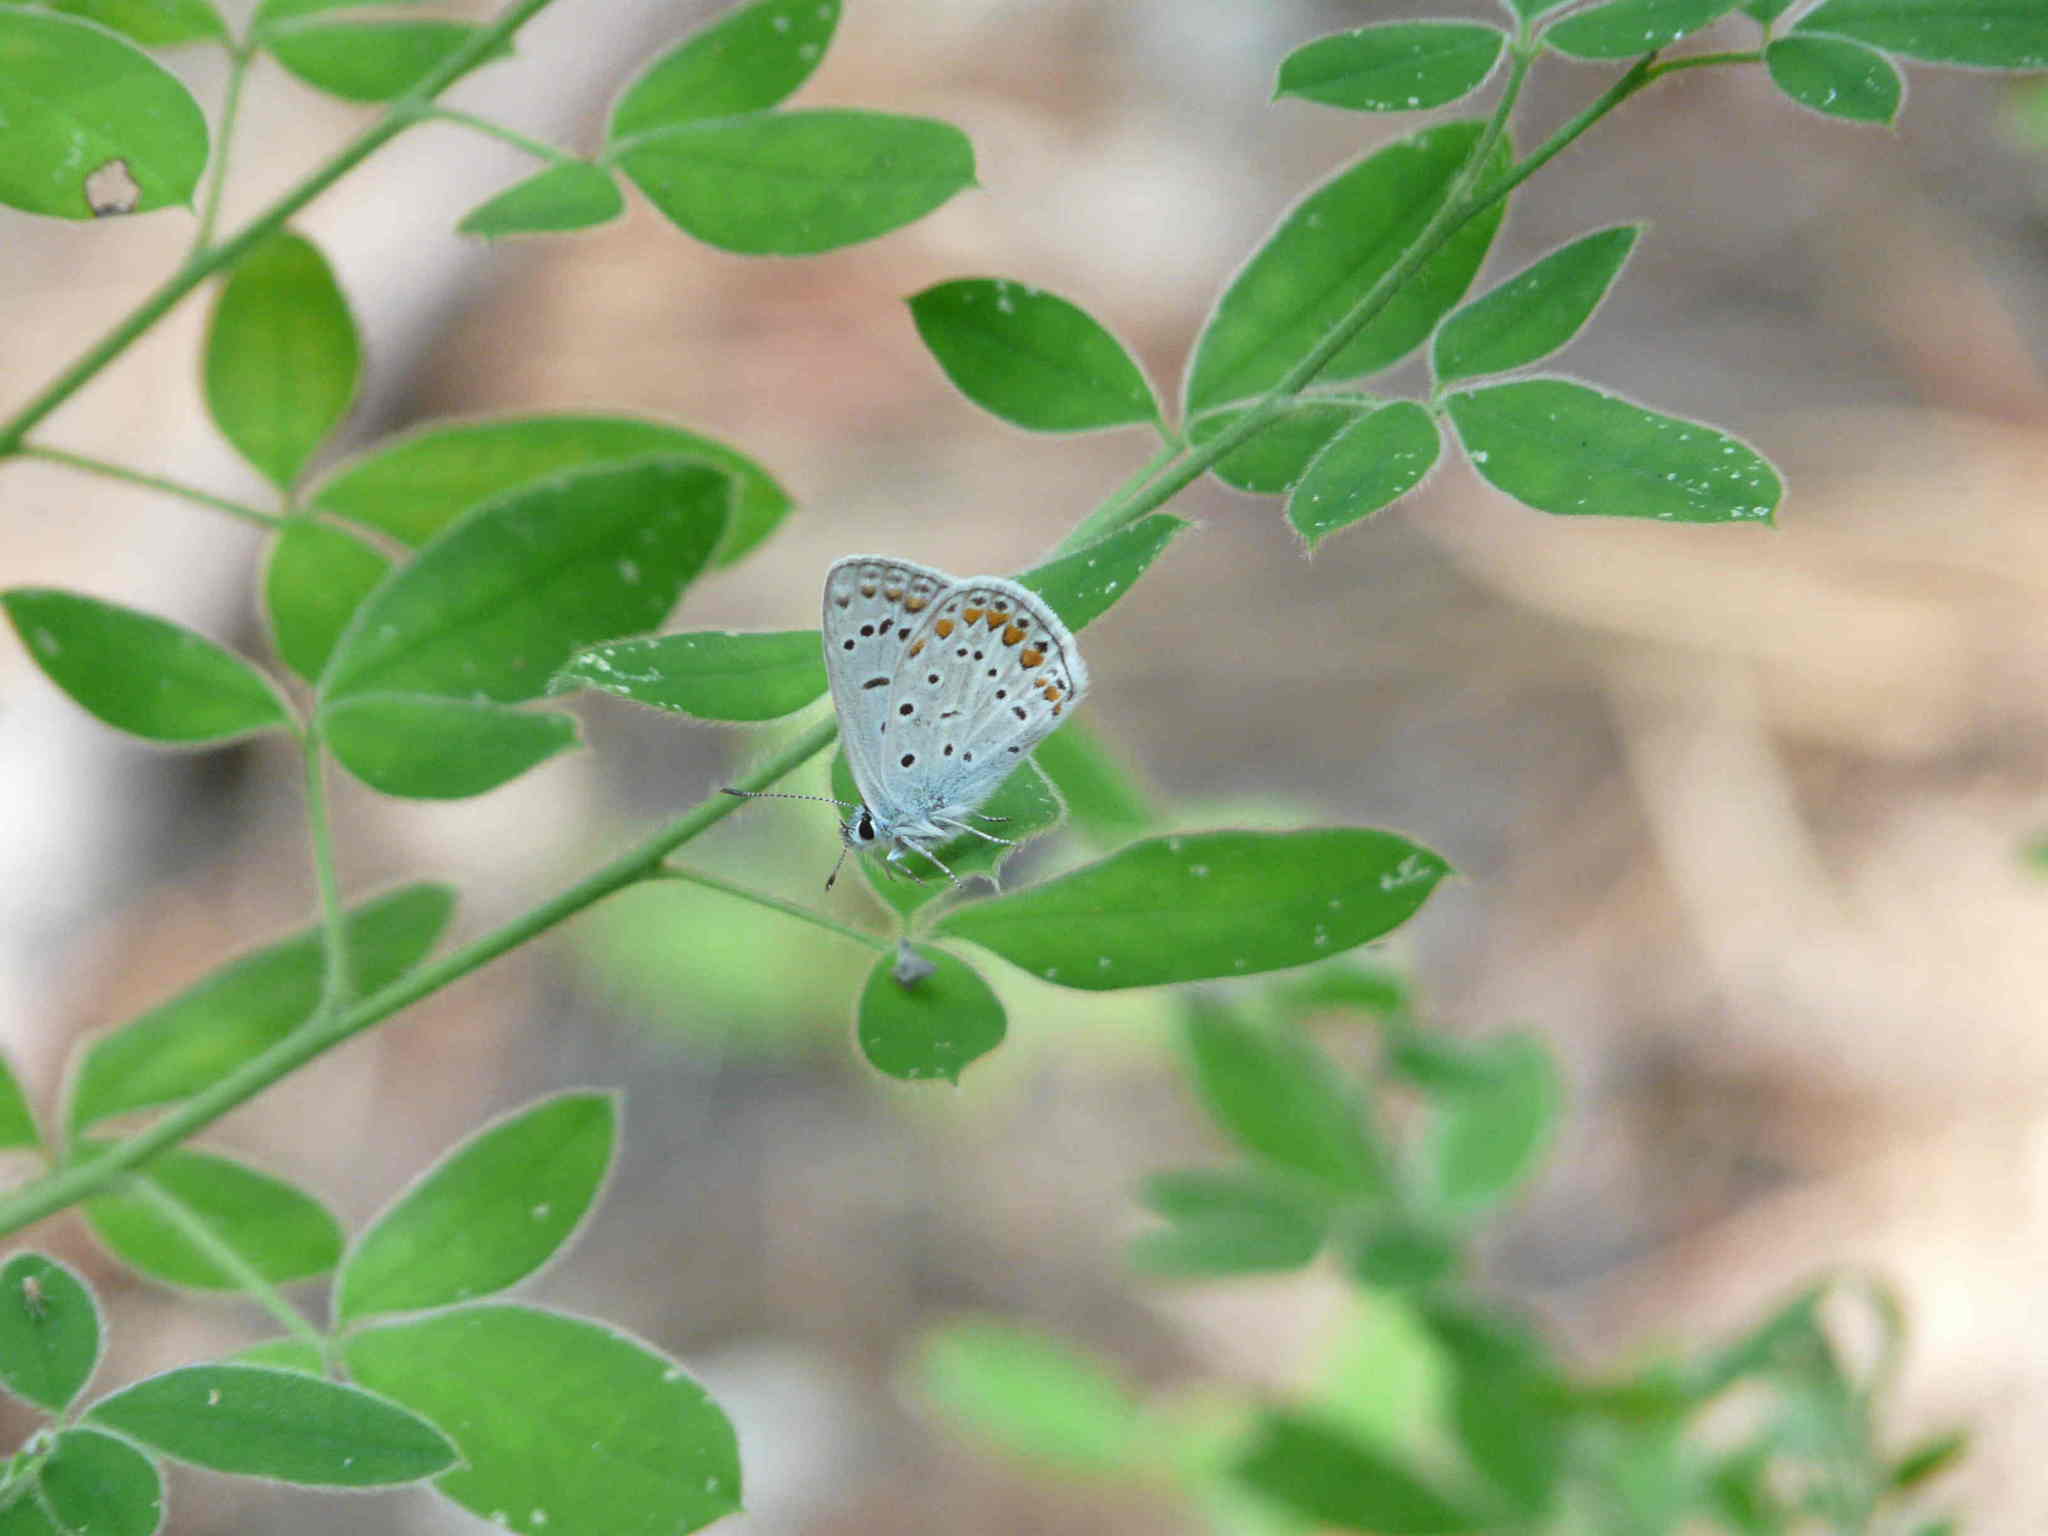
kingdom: Animalia
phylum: Arthropoda
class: Insecta
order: Lepidoptera
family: Lycaenidae
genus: Polyommatus
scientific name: Polyommatus icarus
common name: Common blue
